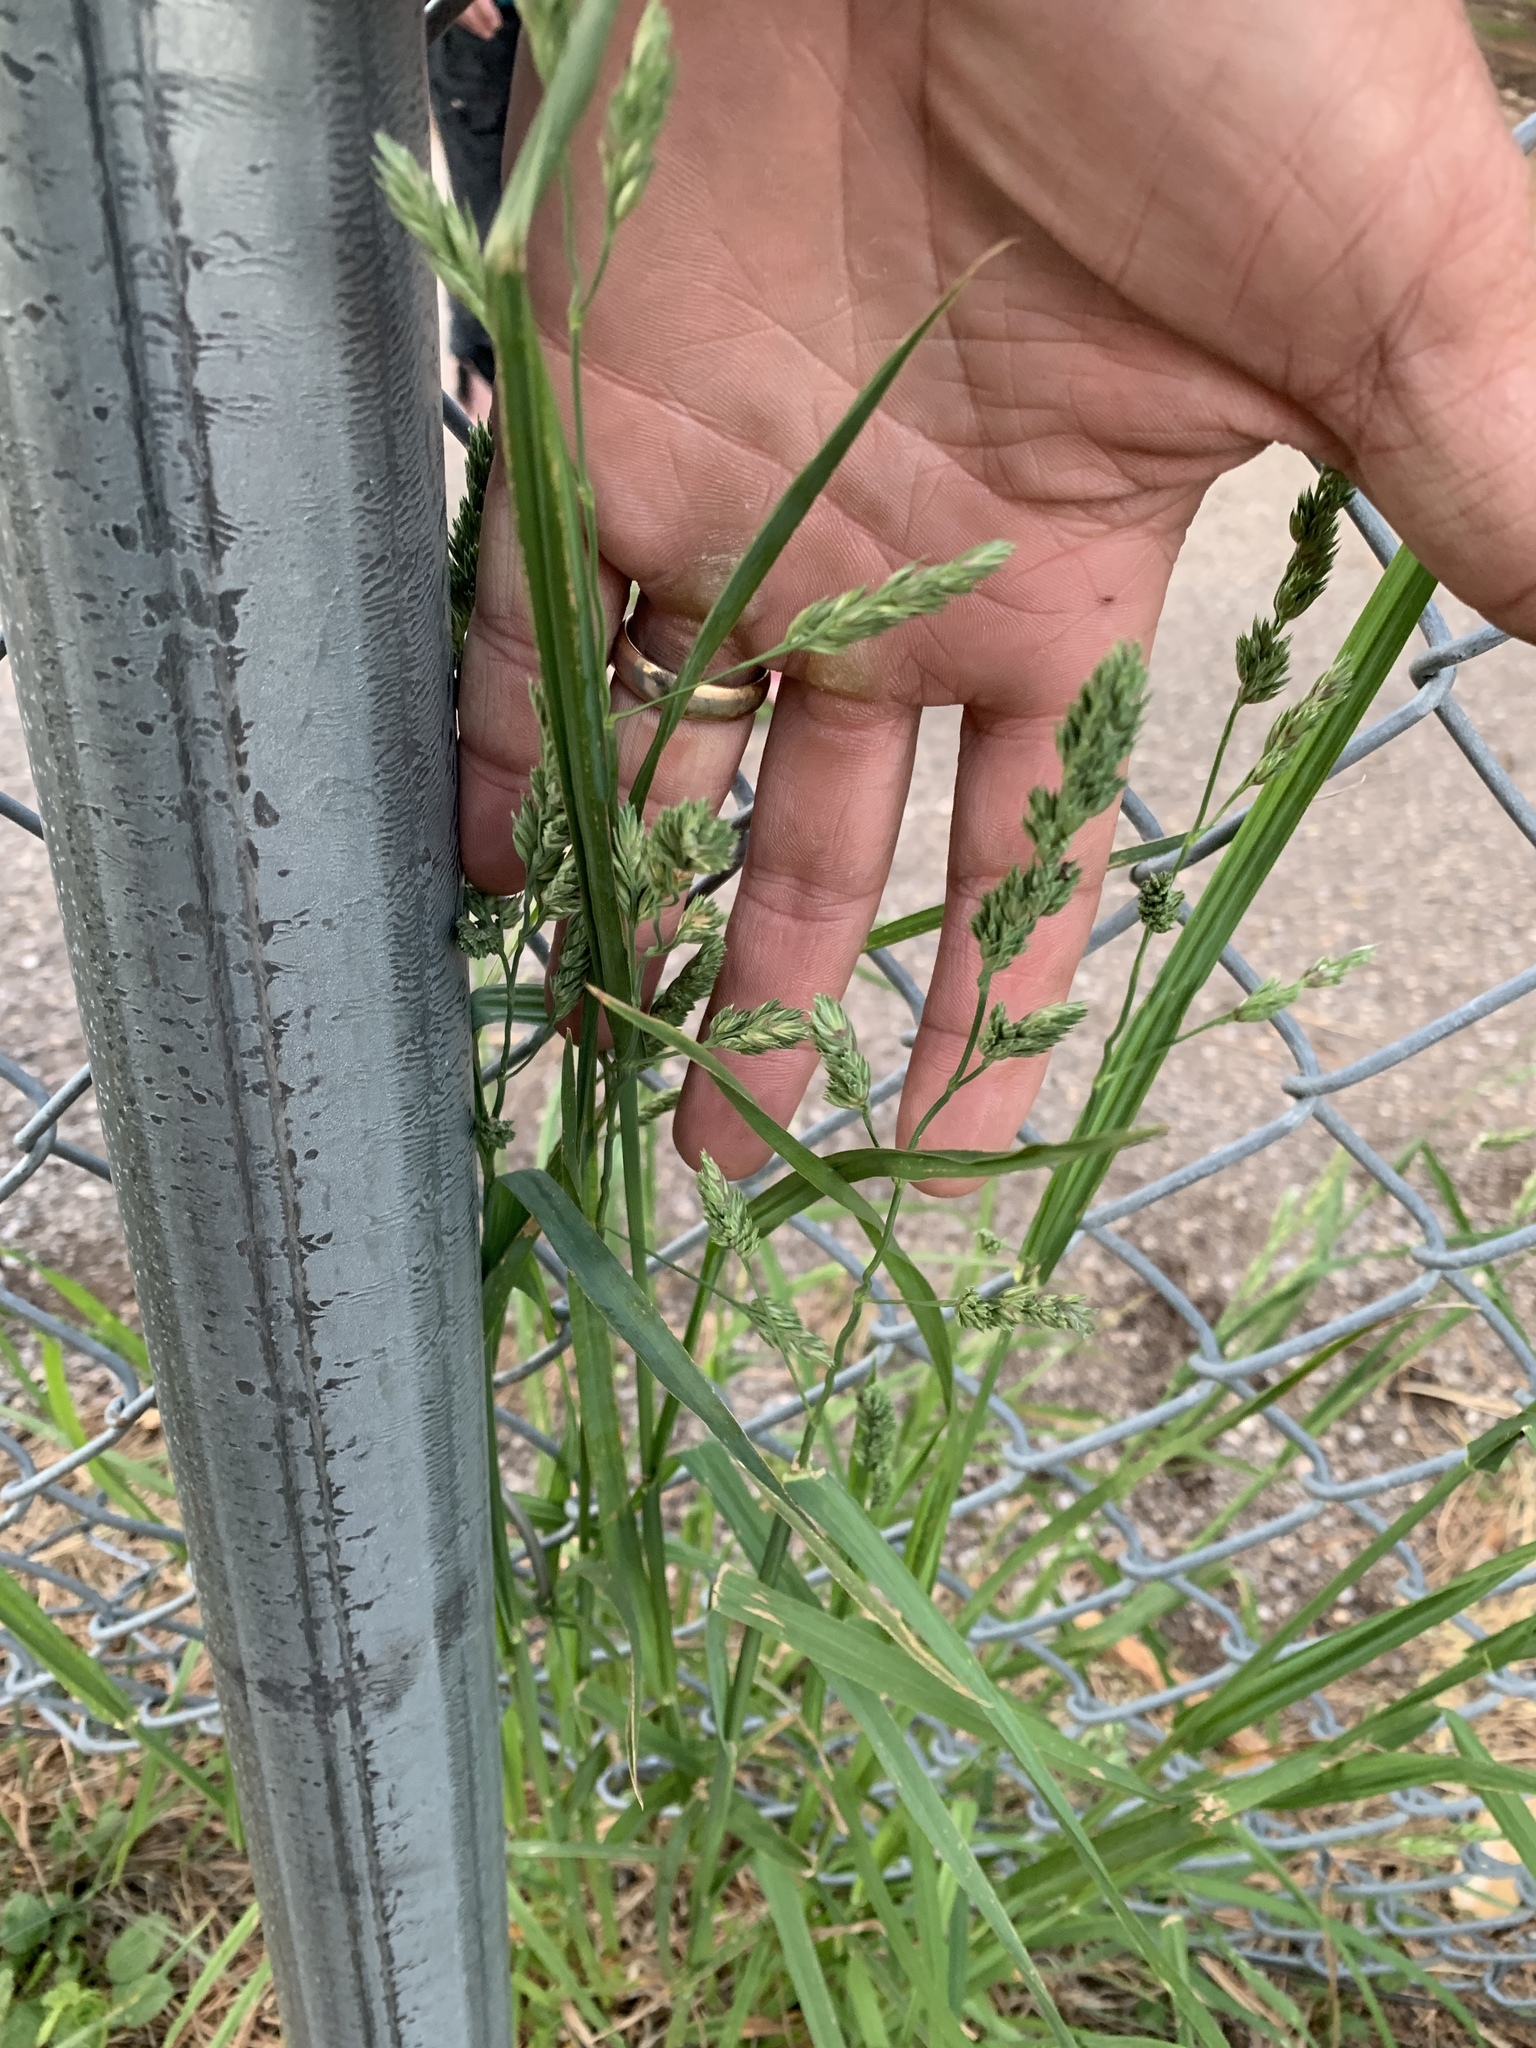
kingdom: Plantae
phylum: Tracheophyta
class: Liliopsida
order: Poales
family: Poaceae
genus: Dactylis
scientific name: Dactylis glomerata
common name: Orchardgrass
